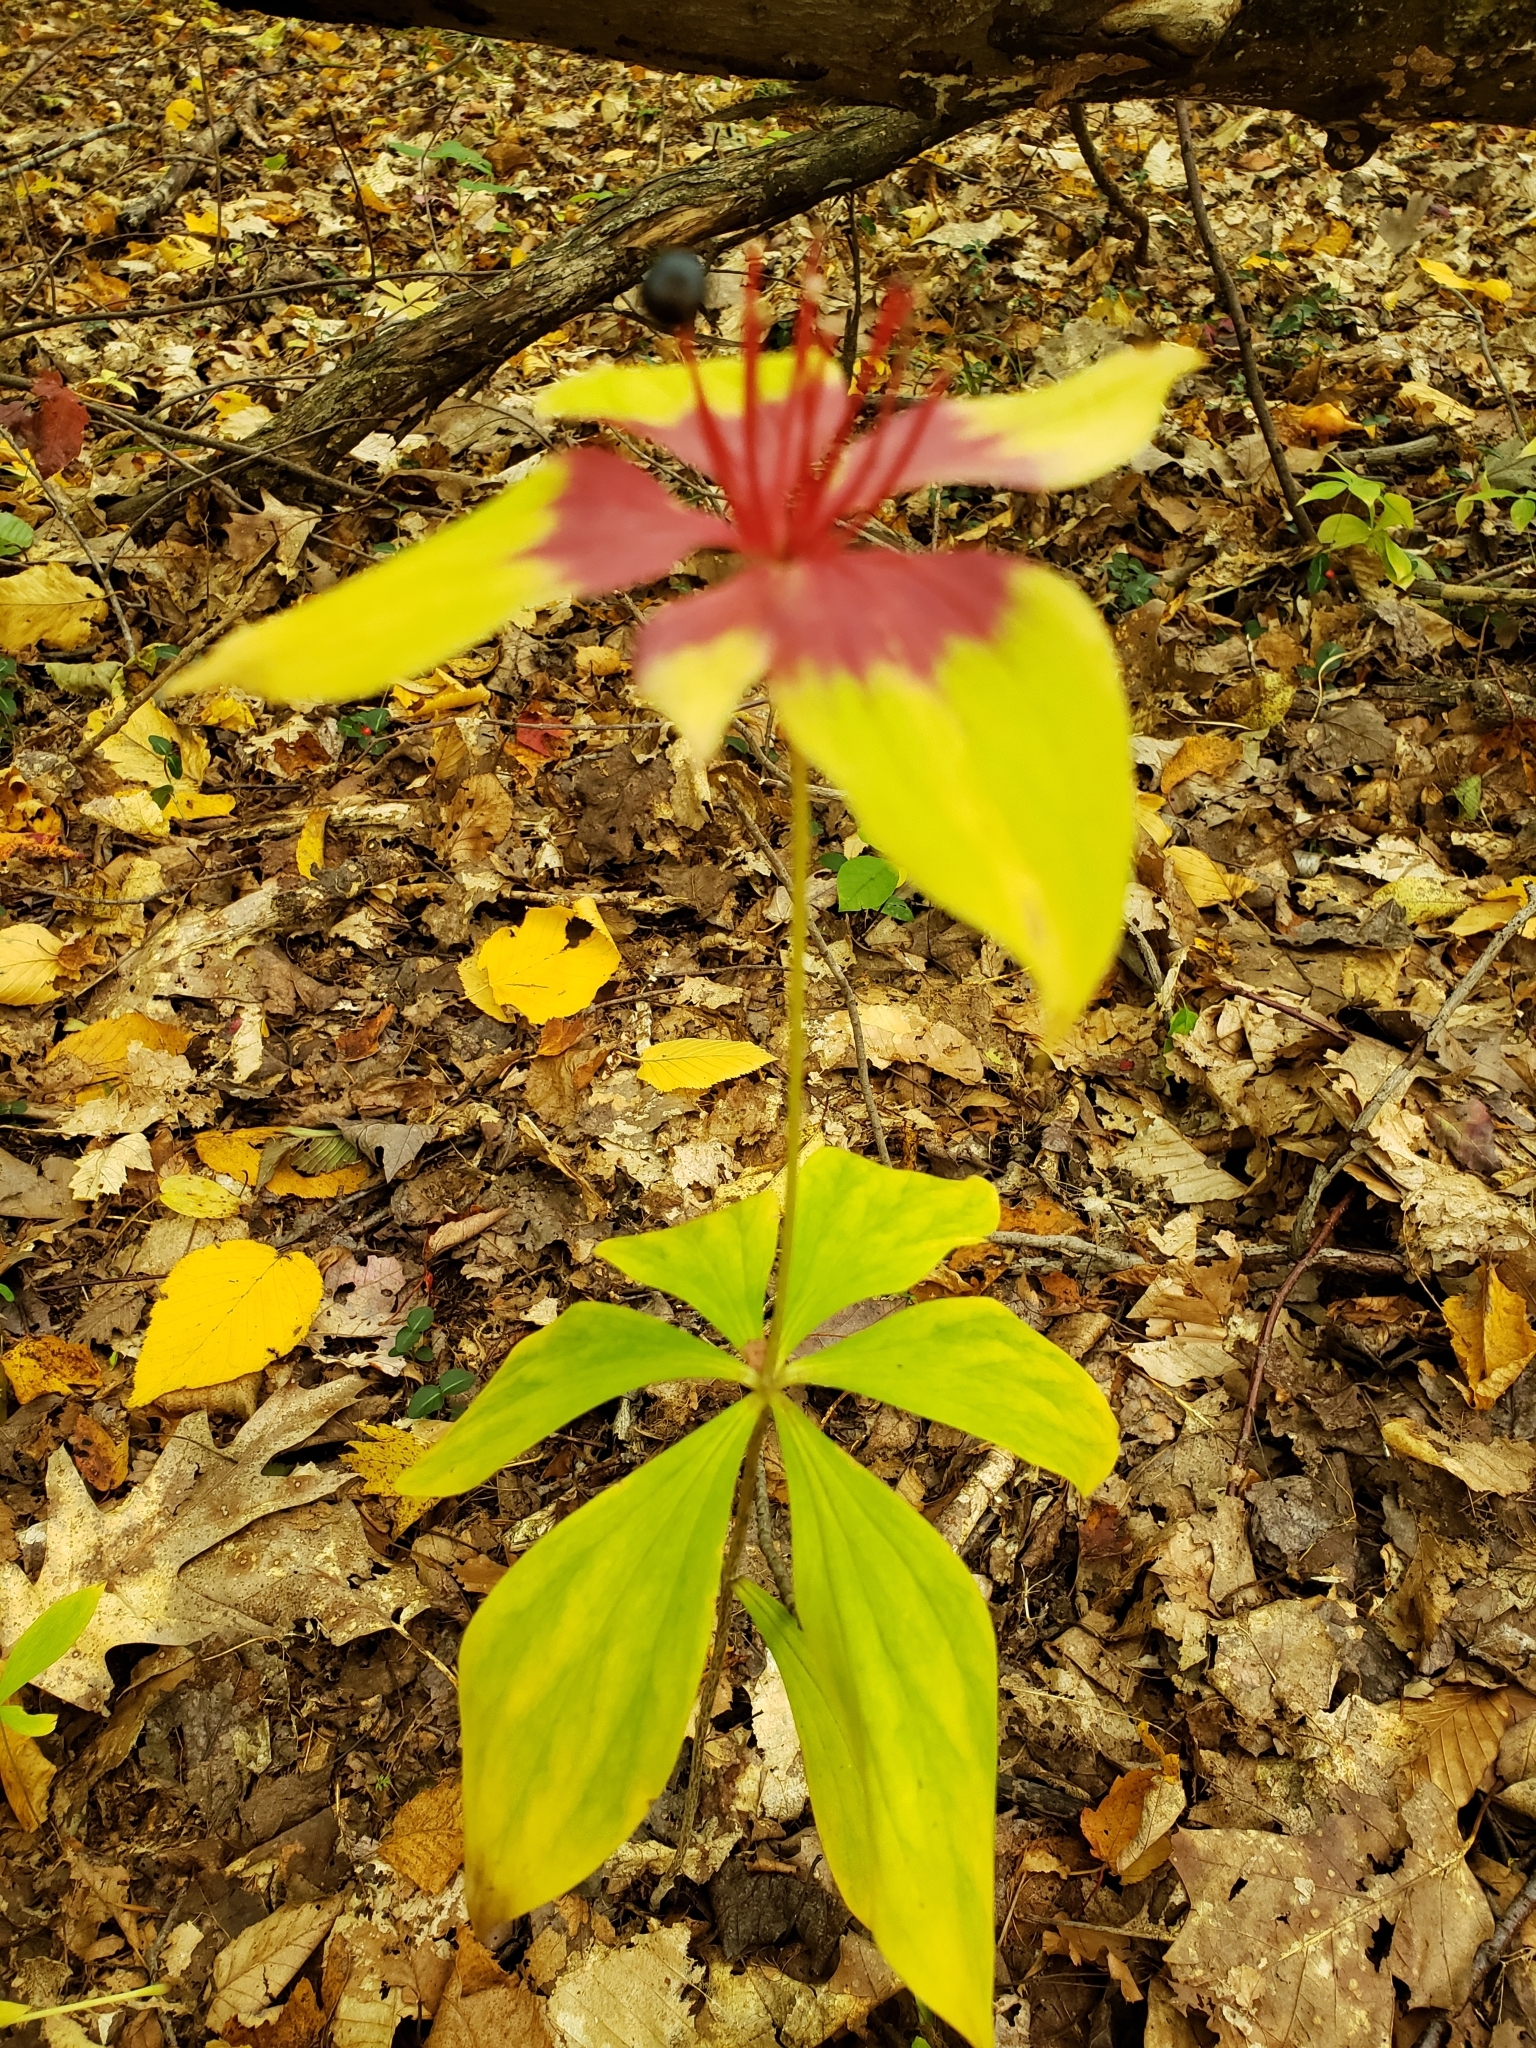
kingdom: Plantae
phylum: Tracheophyta
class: Liliopsida
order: Liliales
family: Liliaceae
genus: Medeola
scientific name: Medeola virginiana
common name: Indian cucumber-root
